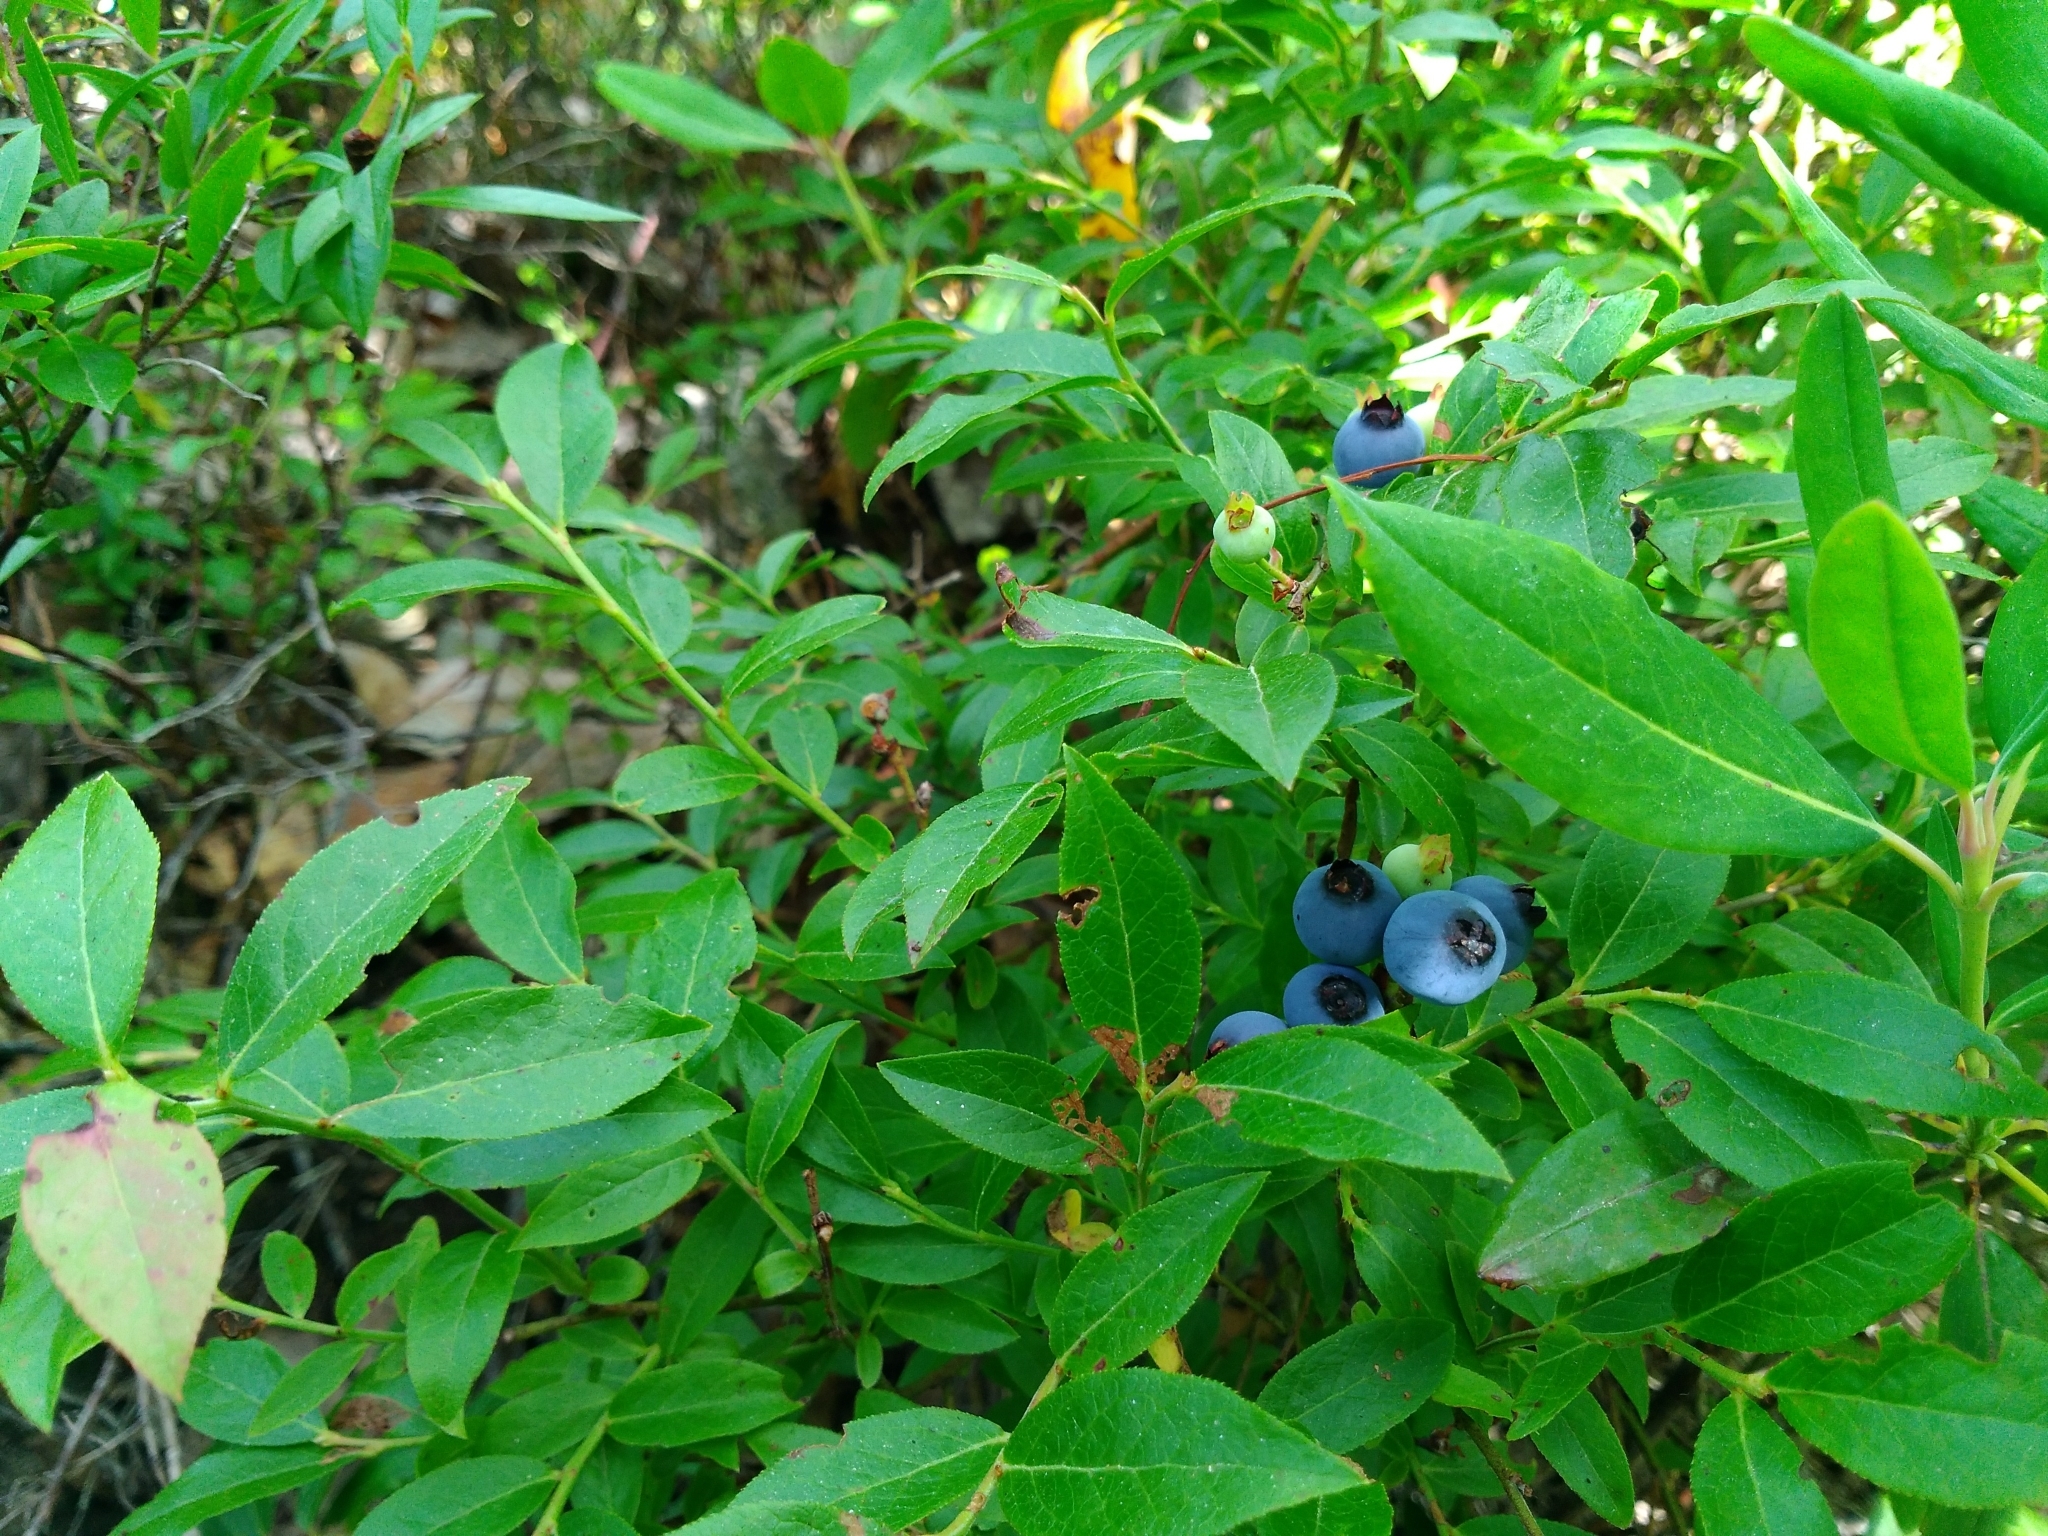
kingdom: Plantae
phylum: Tracheophyta
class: Magnoliopsida
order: Ericales
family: Ericaceae
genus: Vaccinium
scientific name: Vaccinium angustifolium
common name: Early lowbush blueberry
